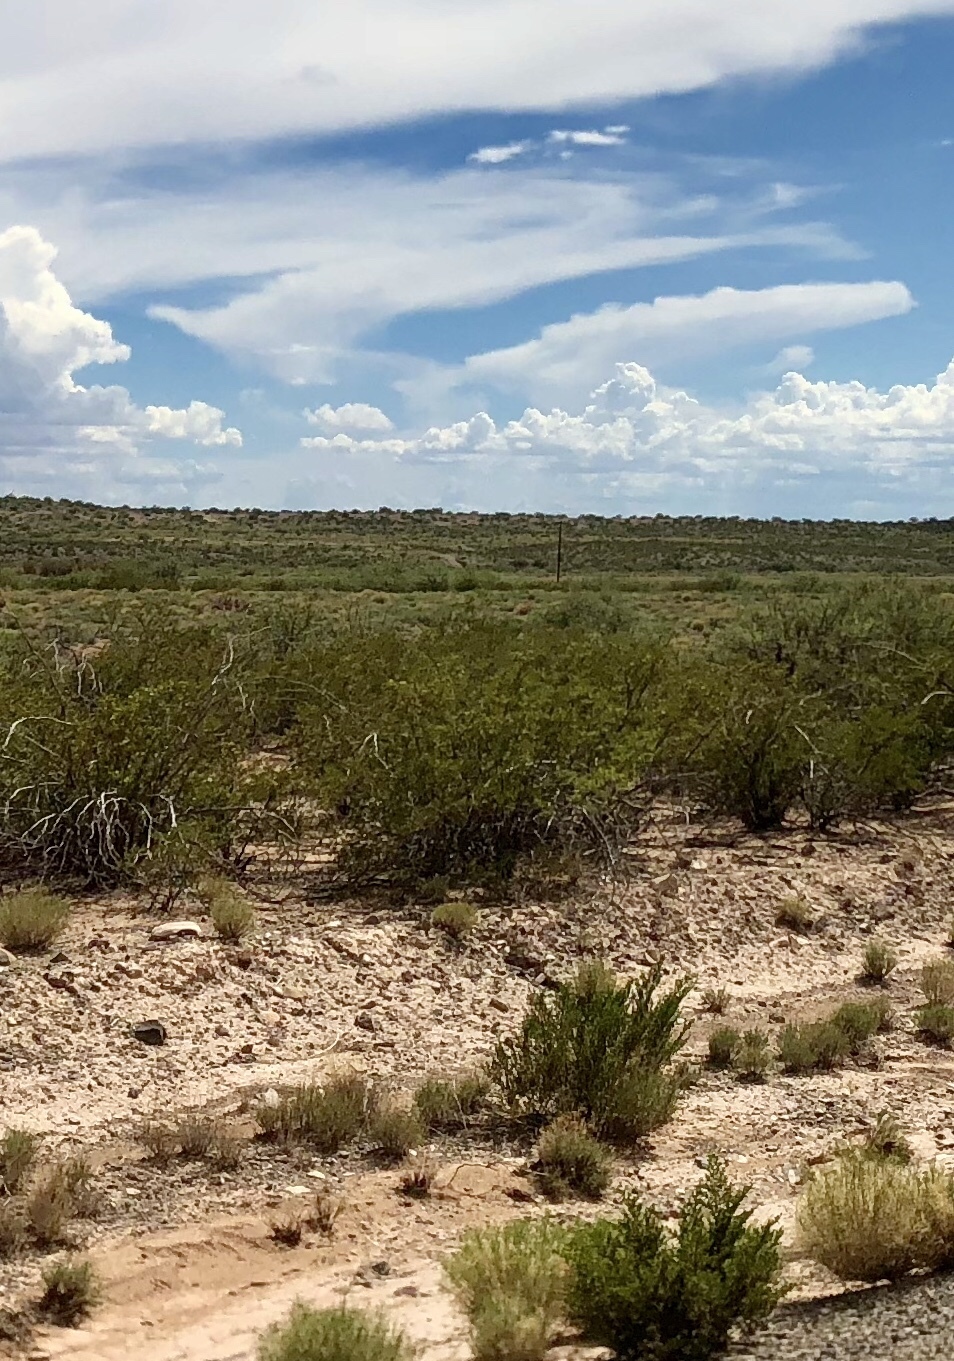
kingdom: Plantae
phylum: Tracheophyta
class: Magnoliopsida
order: Zygophyllales
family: Zygophyllaceae
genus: Larrea
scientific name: Larrea tridentata
